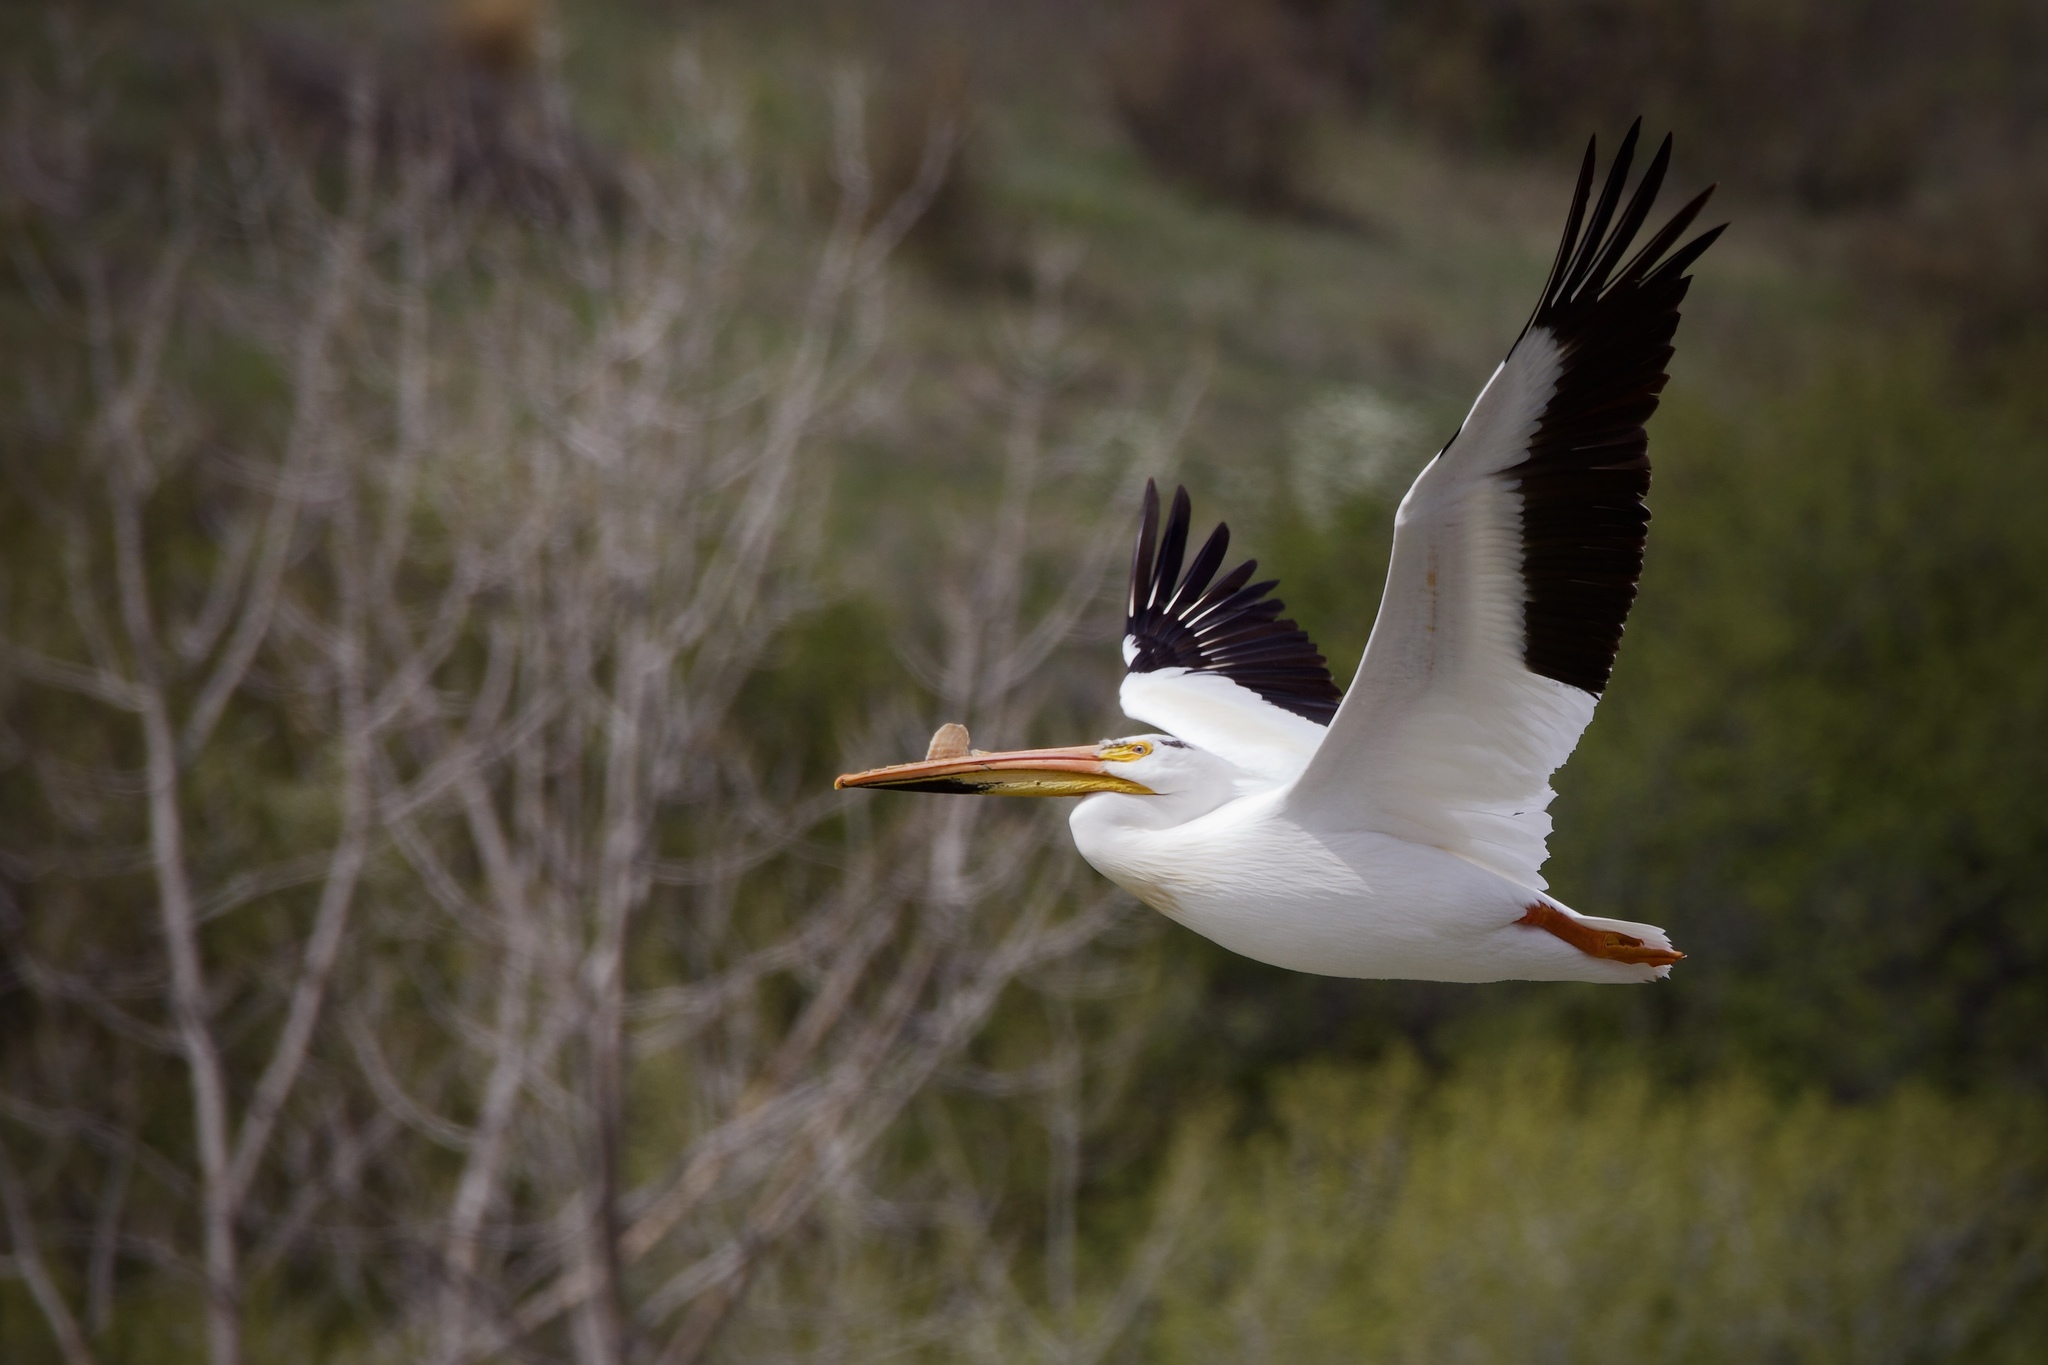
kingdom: Animalia
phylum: Chordata
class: Aves
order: Pelecaniformes
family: Pelecanidae
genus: Pelecanus
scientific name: Pelecanus erythrorhynchos
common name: American white pelican
